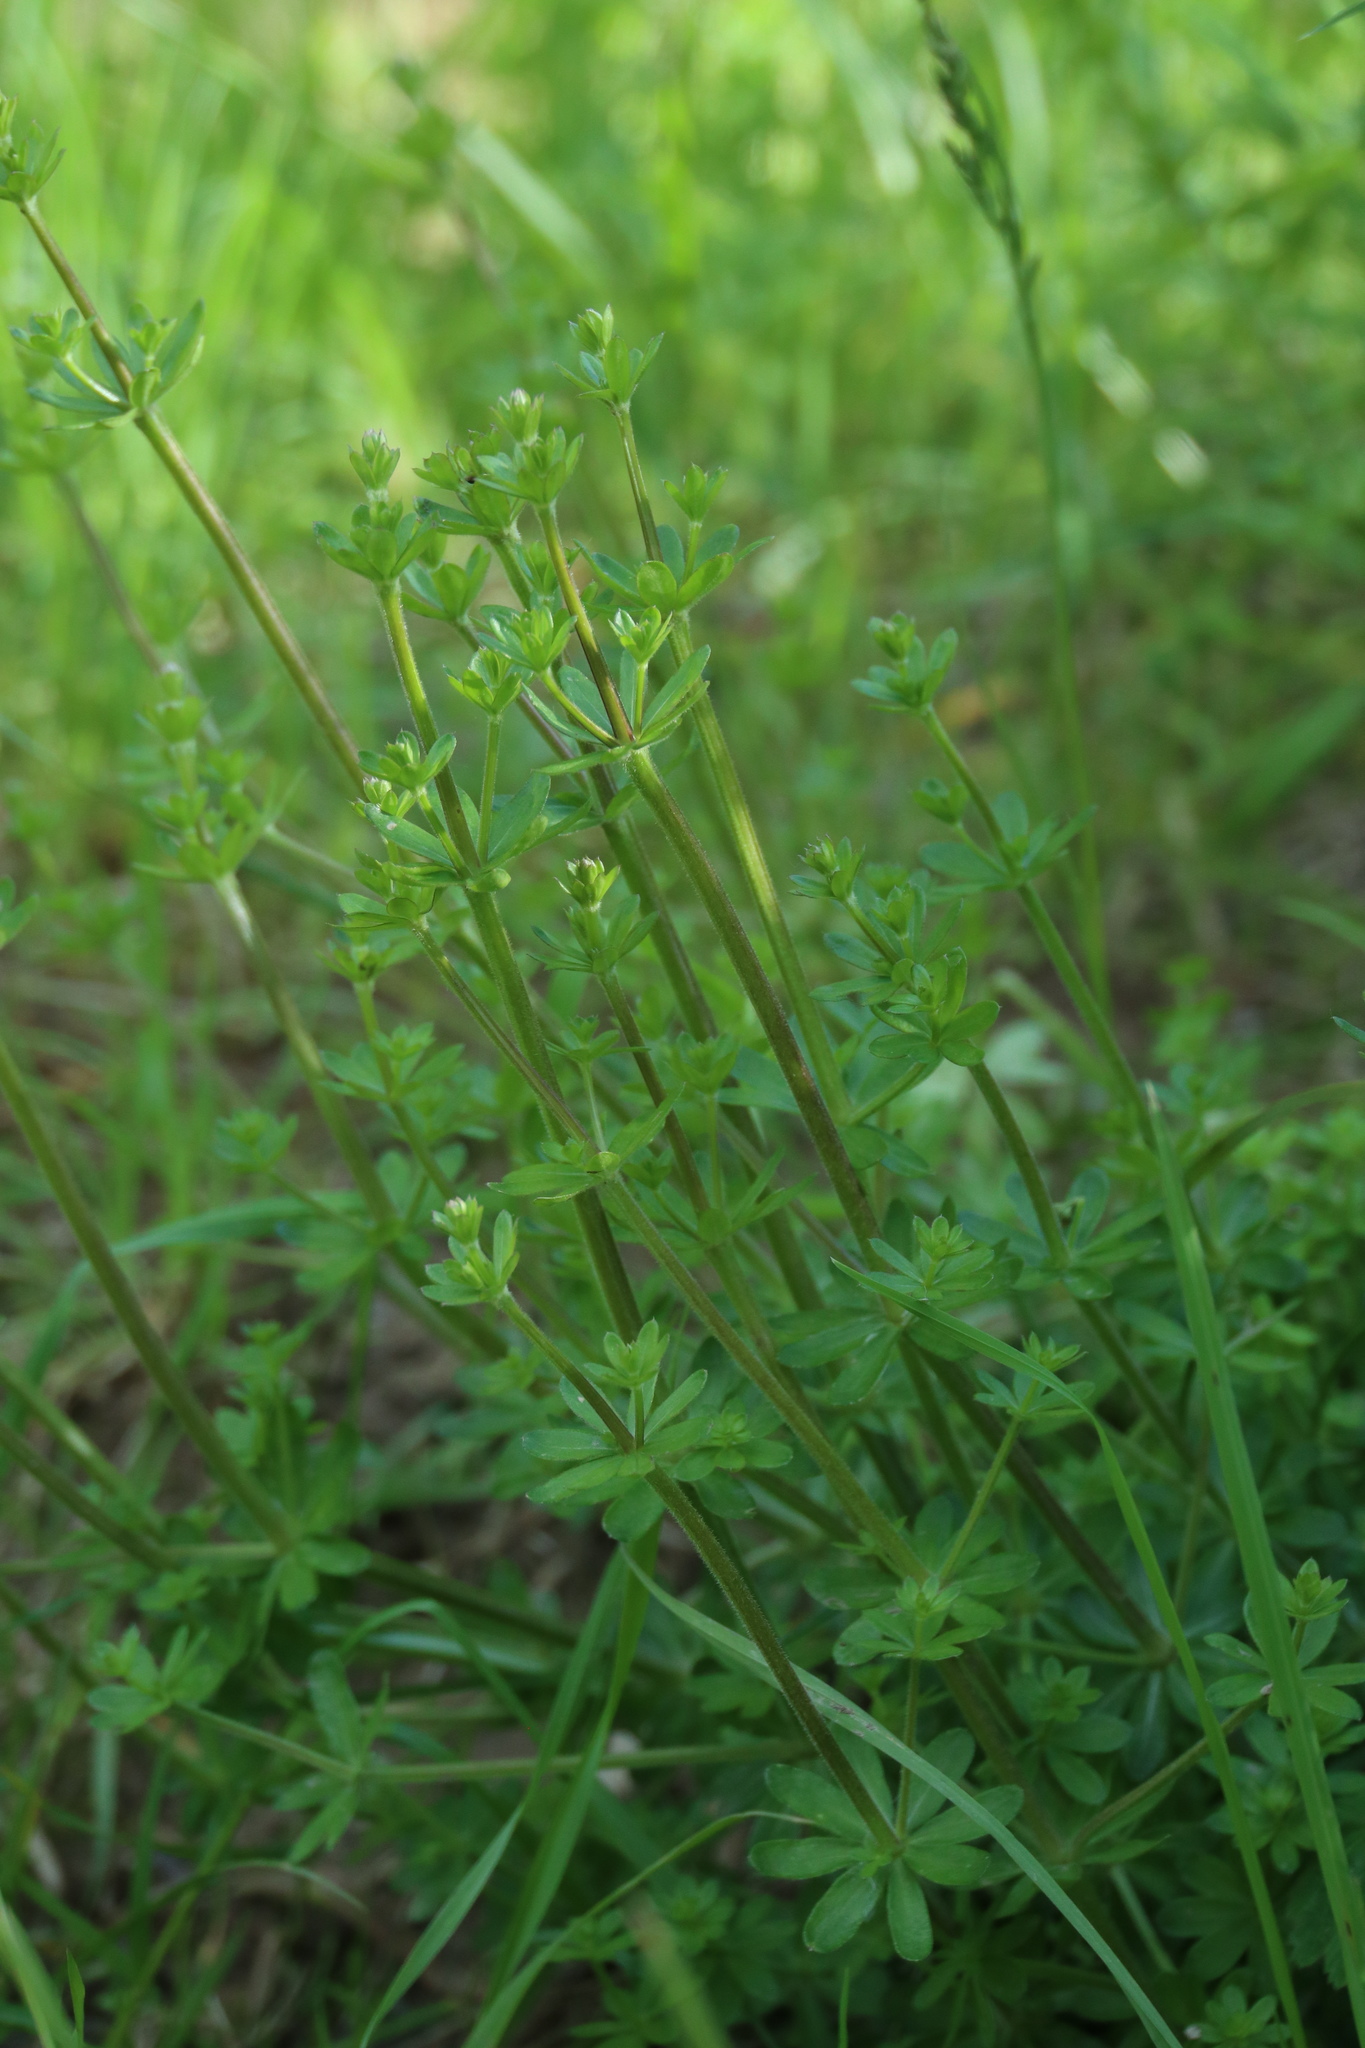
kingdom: Plantae
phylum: Tracheophyta
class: Magnoliopsida
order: Gentianales
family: Rubiaceae
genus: Galium
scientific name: Galium mollugo
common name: Hedge bedstraw
